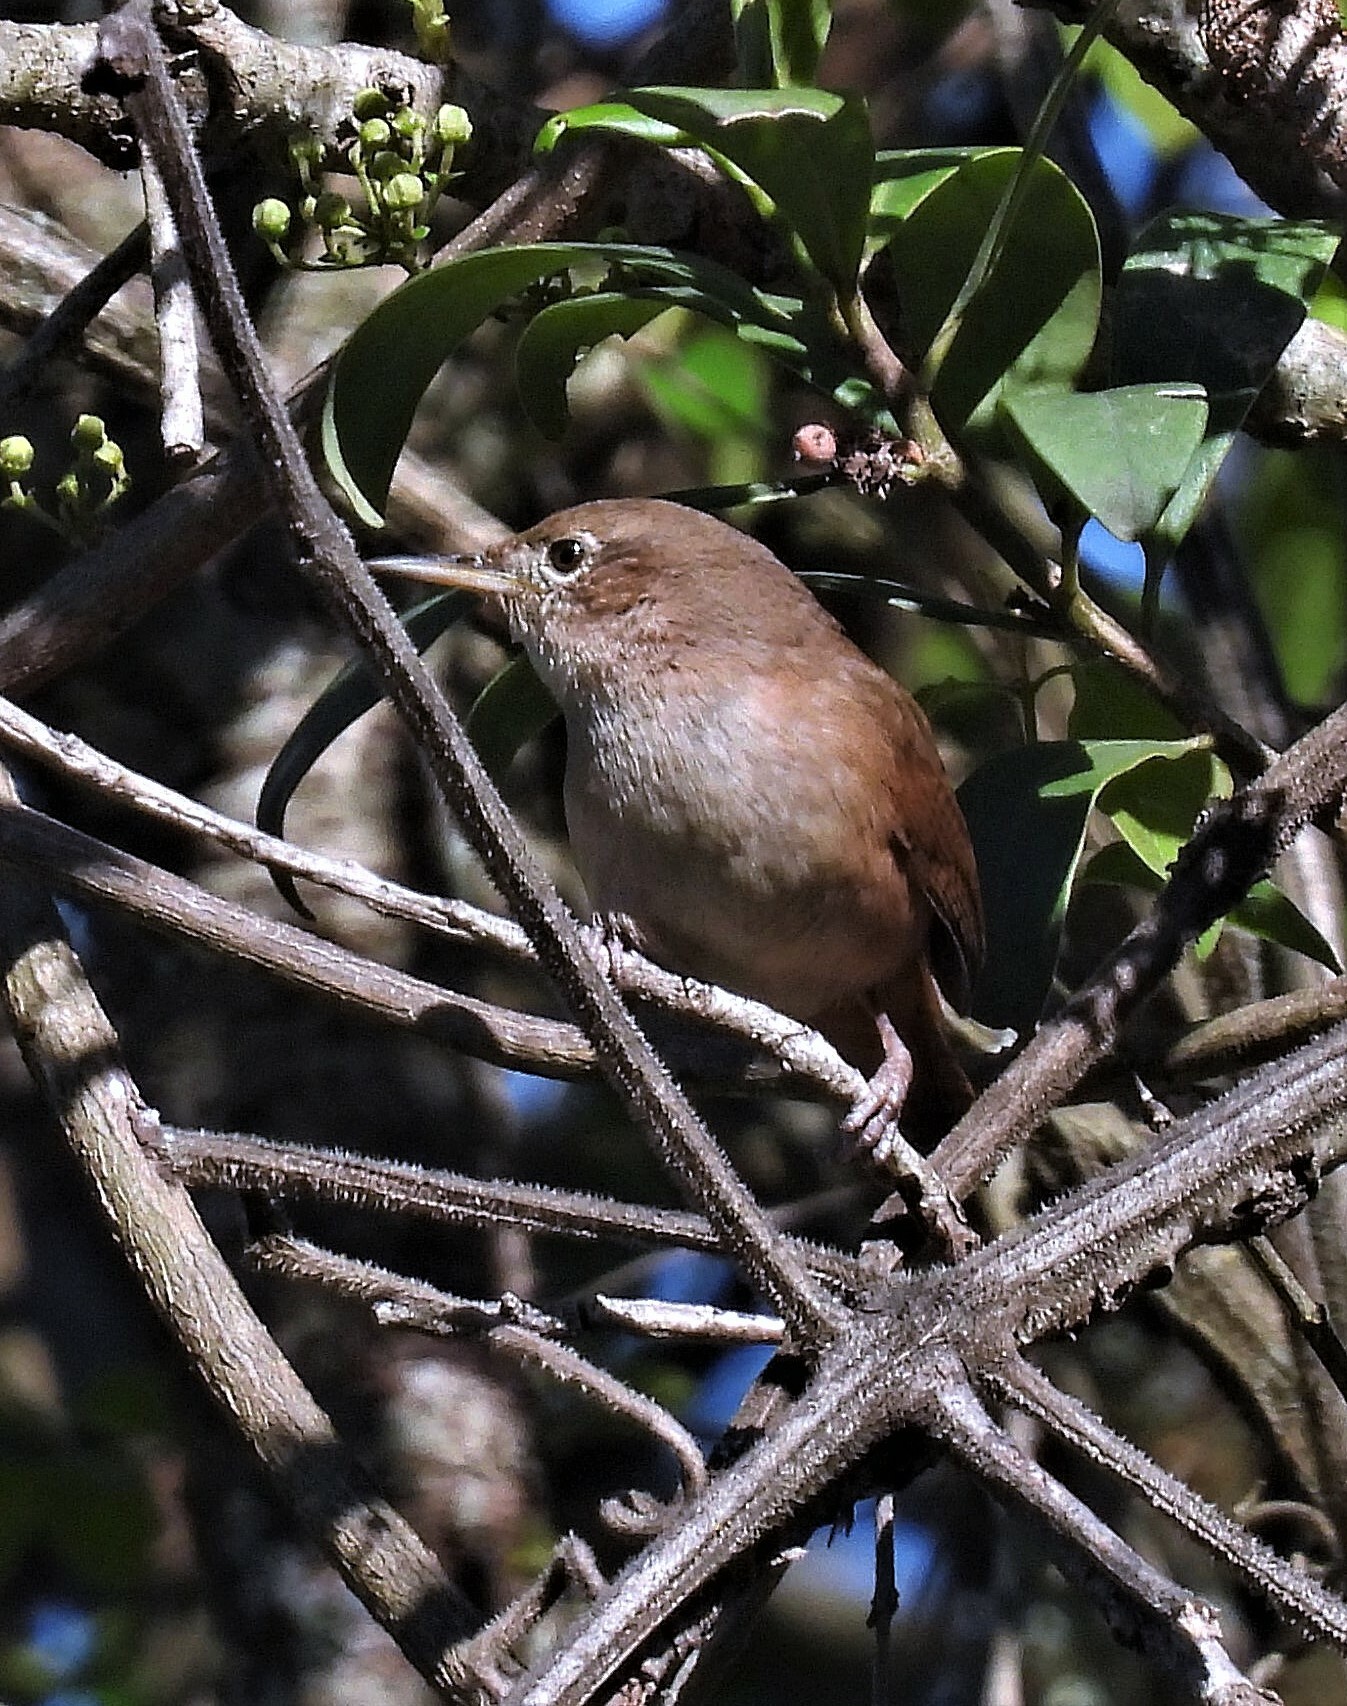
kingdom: Animalia
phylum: Chordata
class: Aves
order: Passeriformes
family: Troglodytidae
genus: Troglodytes
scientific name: Troglodytes aedon
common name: House wren
